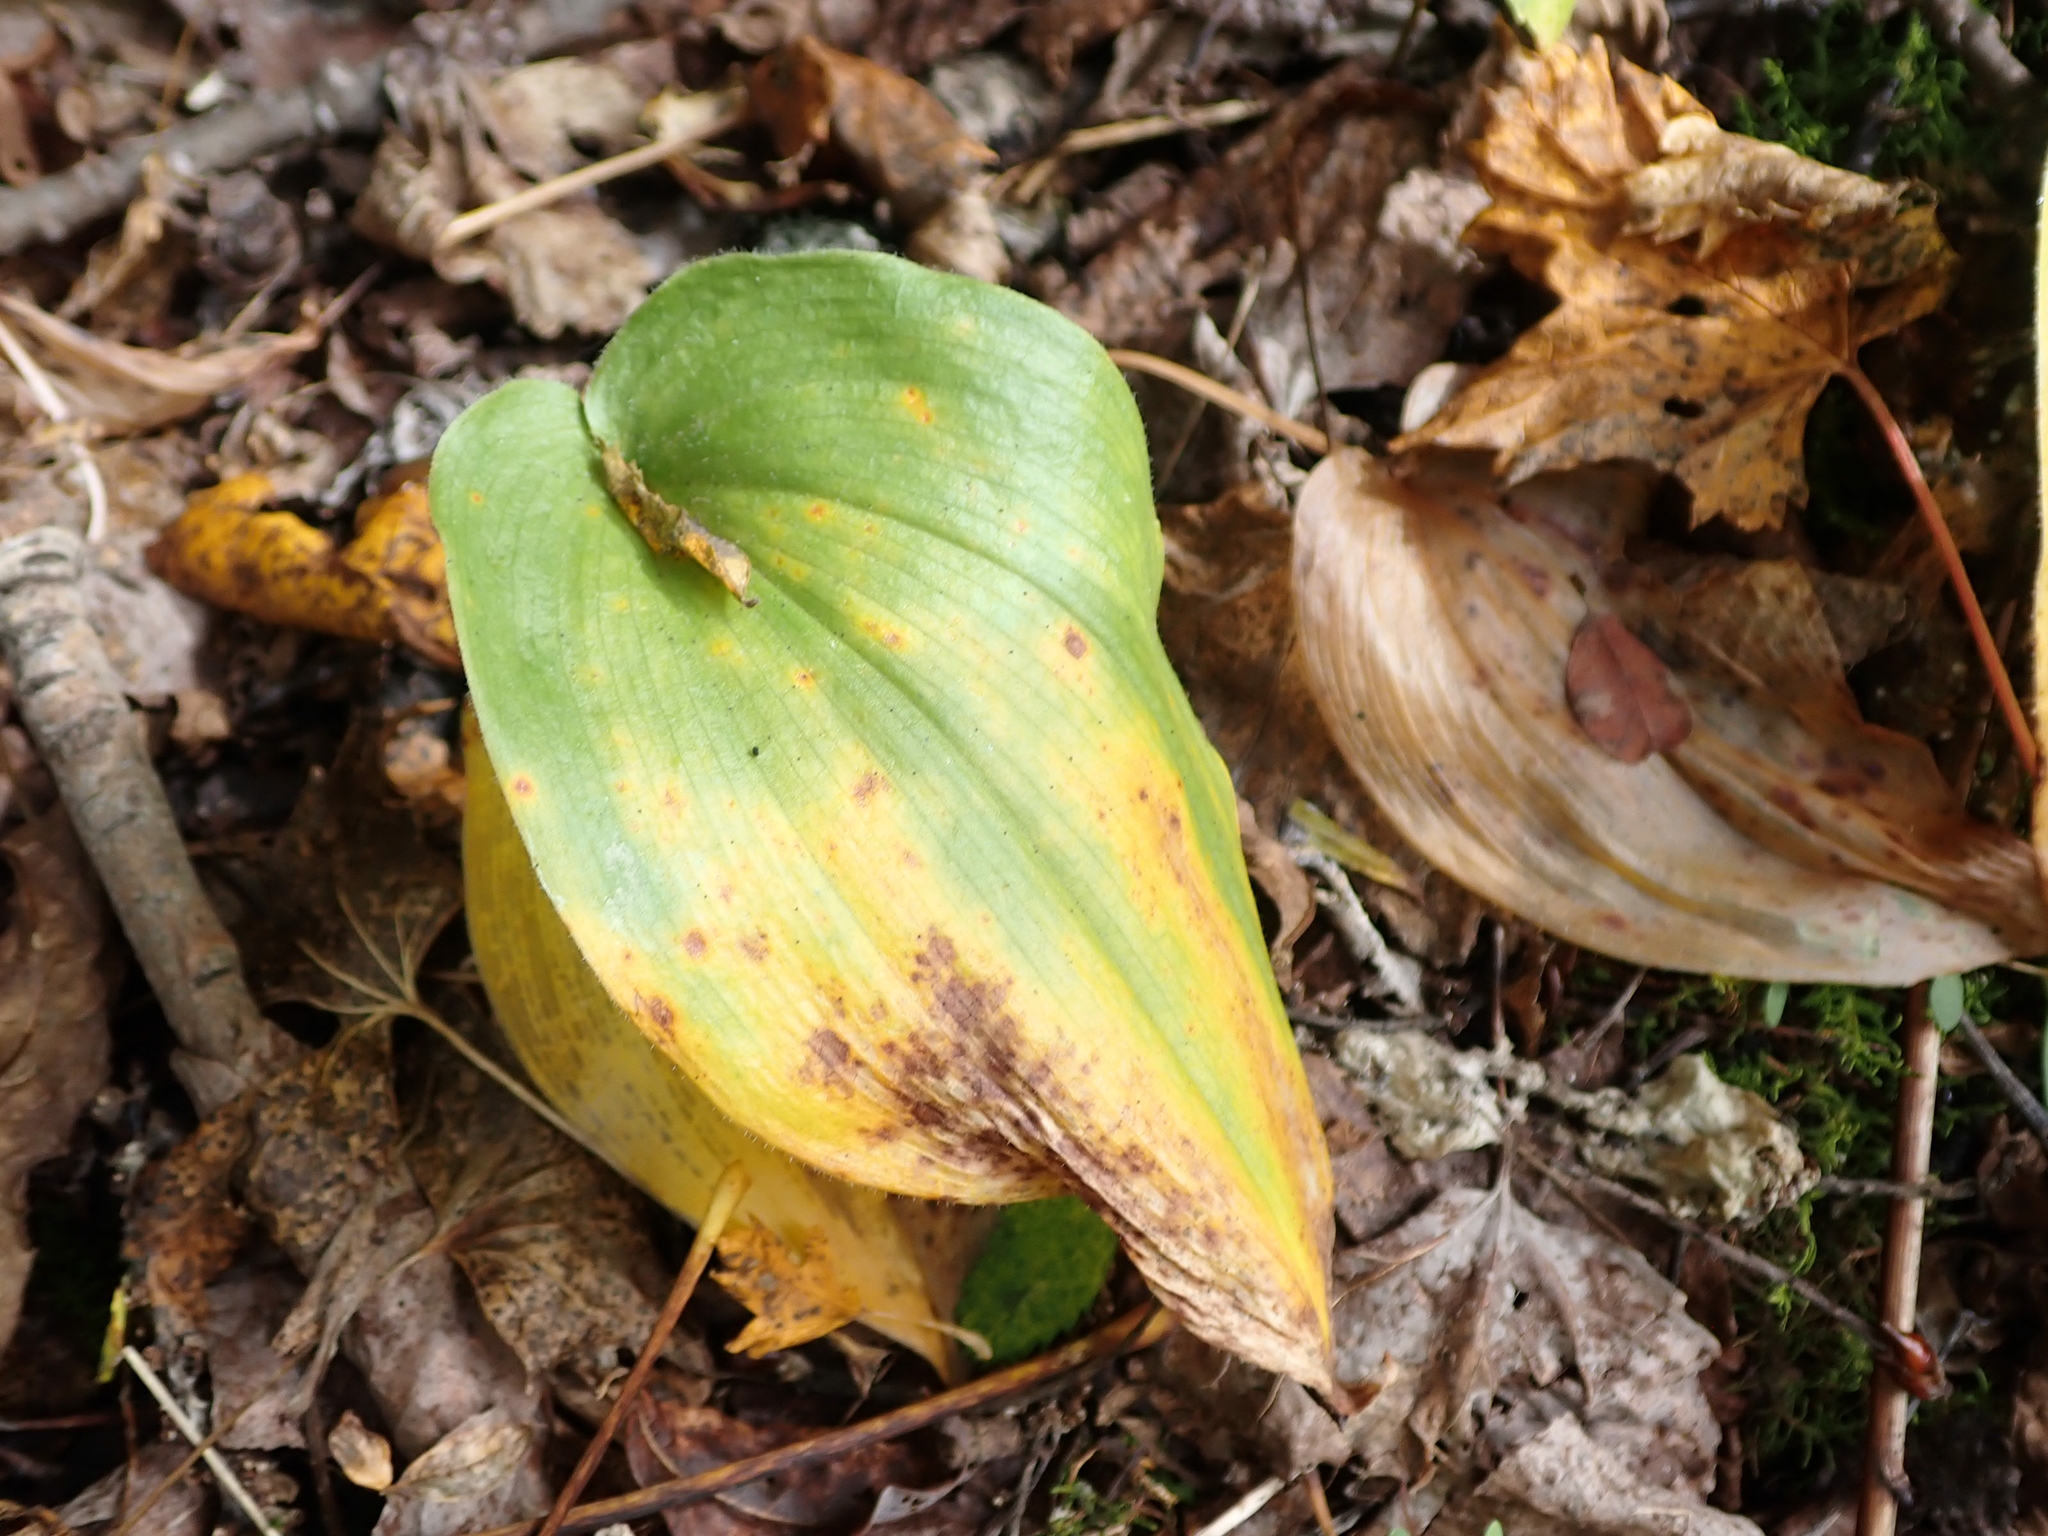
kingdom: Plantae
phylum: Tracheophyta
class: Liliopsida
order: Asparagales
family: Asparagaceae
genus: Maianthemum
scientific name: Maianthemum canadense
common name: False lily-of-the-valley
